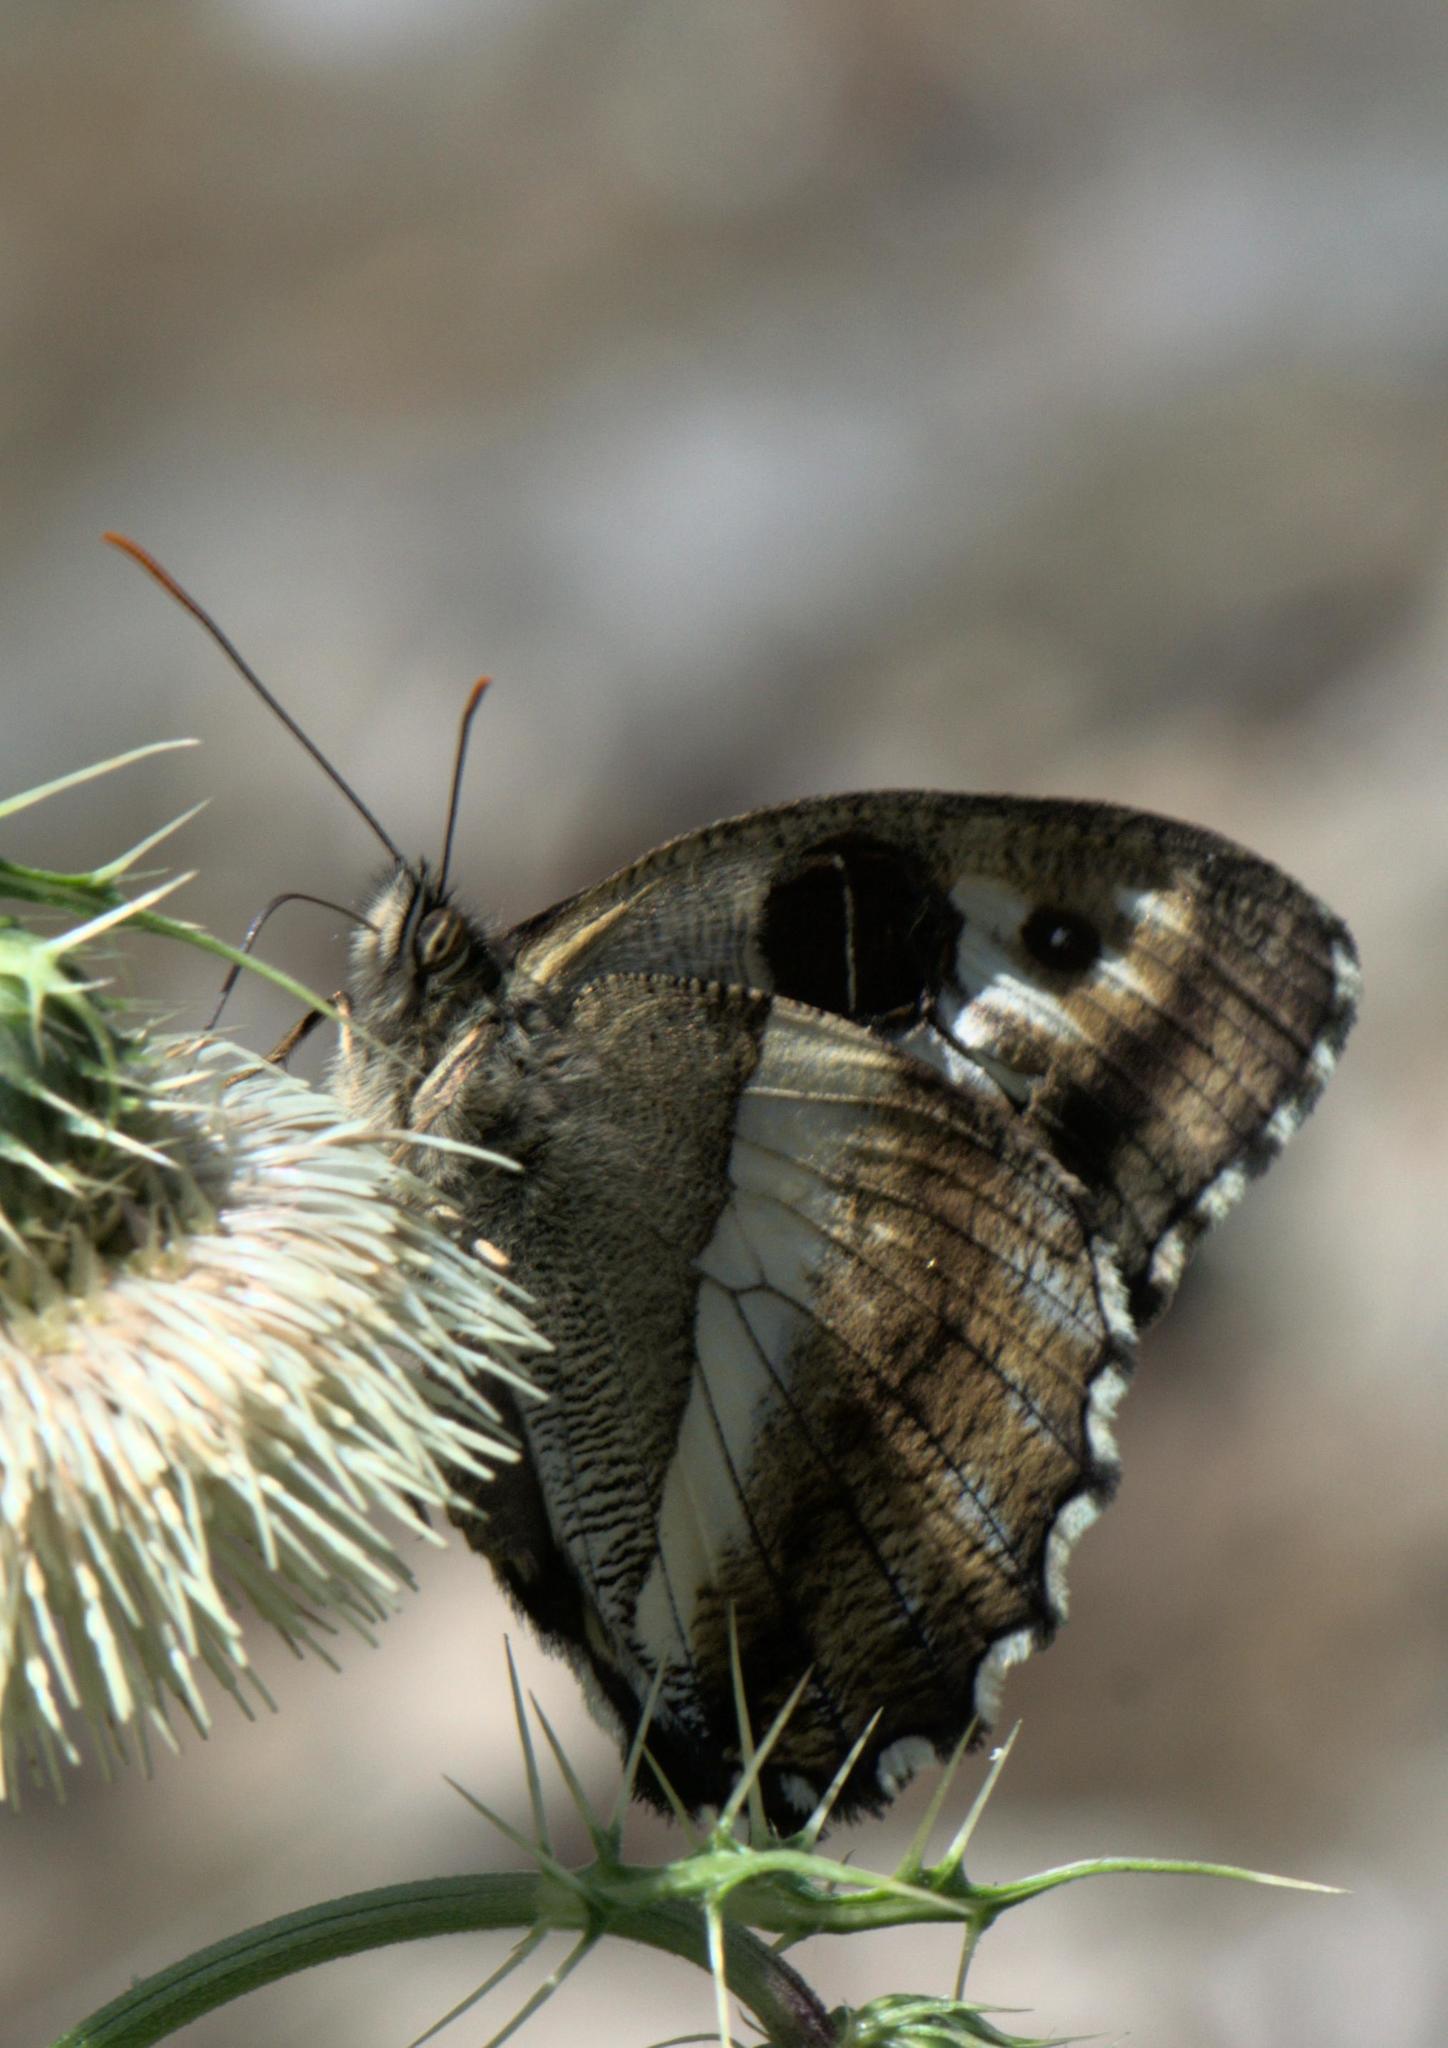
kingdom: Animalia
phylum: Arthropoda
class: Insecta
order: Lepidoptera
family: Nymphalidae
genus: Satyrus
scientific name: Satyrus
